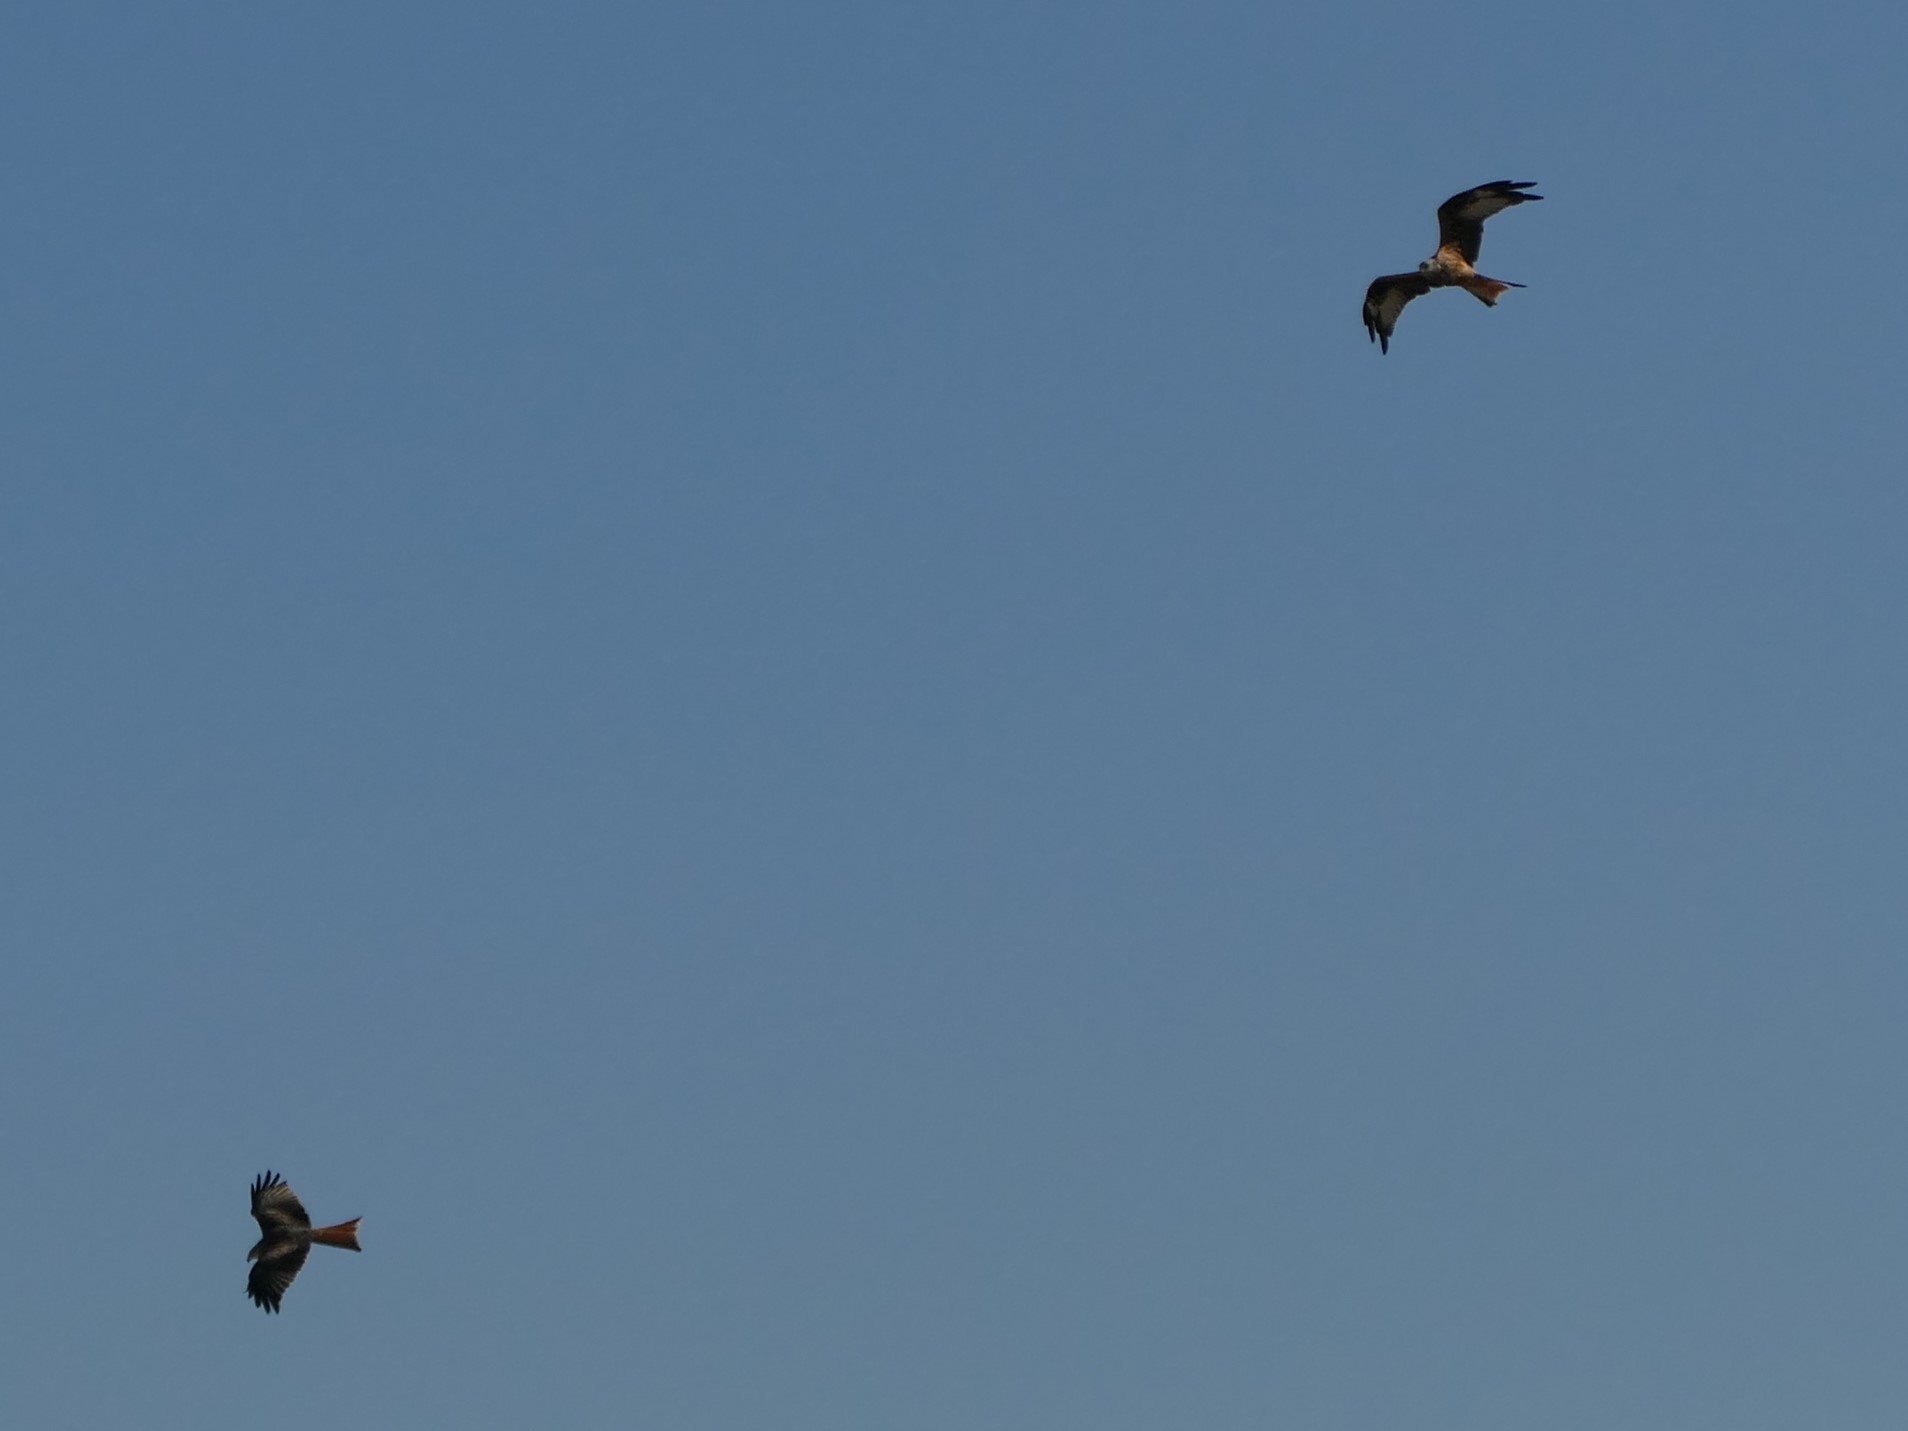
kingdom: Animalia
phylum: Chordata
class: Aves
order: Accipitriformes
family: Accipitridae
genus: Milvus
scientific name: Milvus milvus
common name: Red kite
